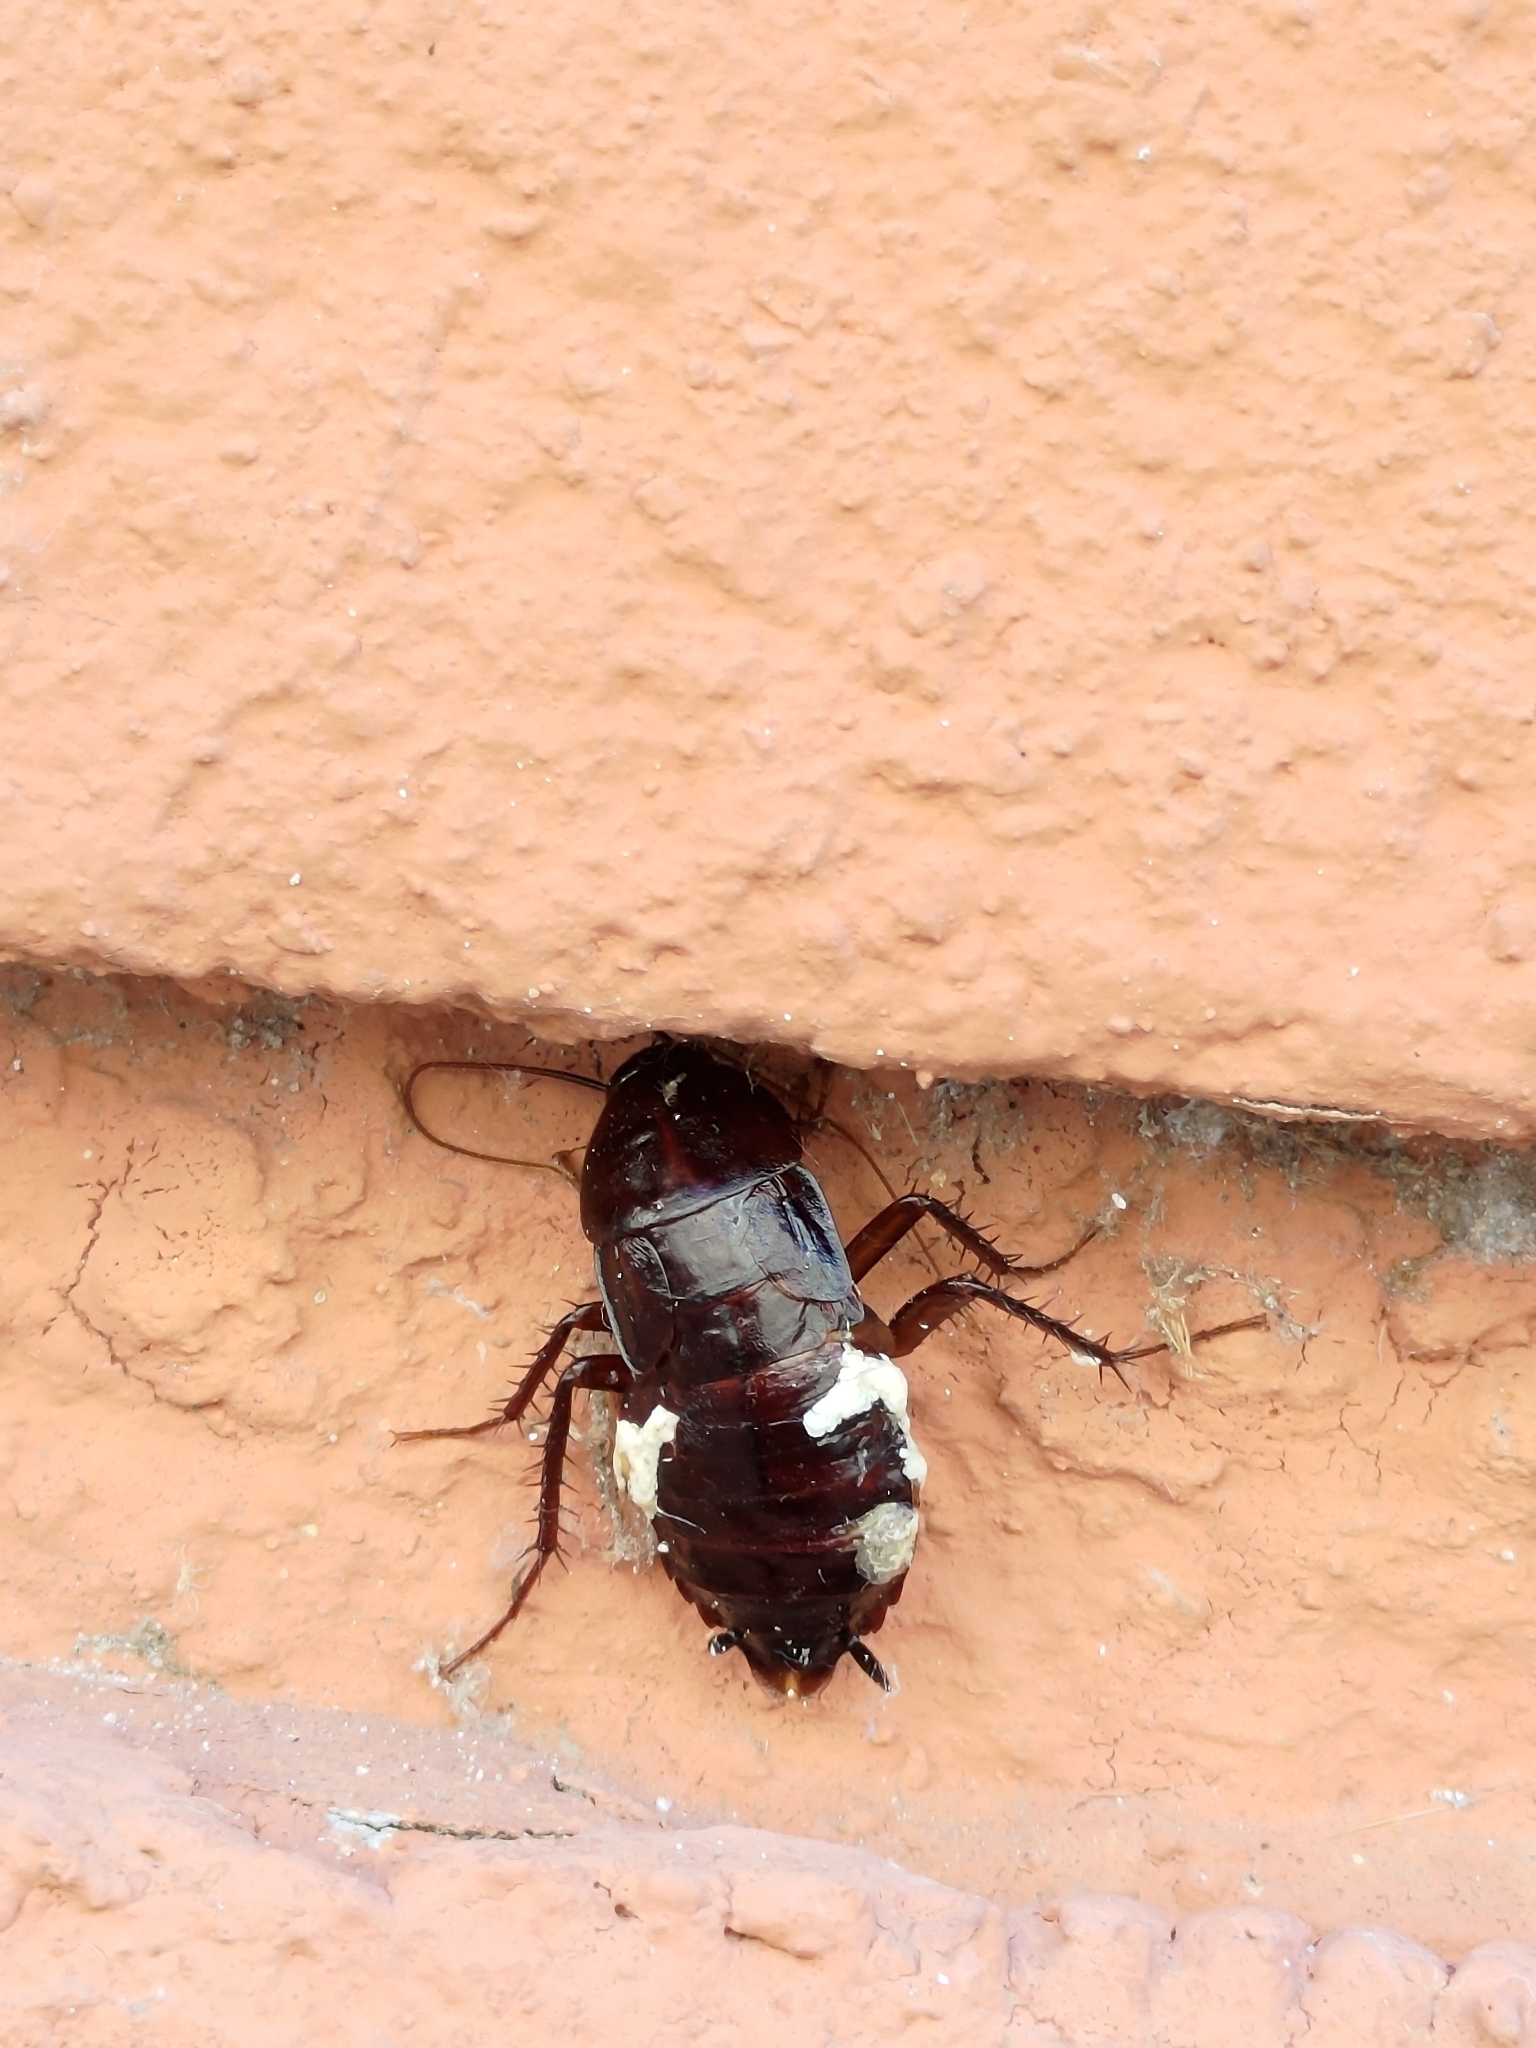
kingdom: Animalia
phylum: Arthropoda
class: Insecta
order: Blattodea
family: Blattidae
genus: Blatta
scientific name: Blatta orientalis
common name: Oriental cockroach
